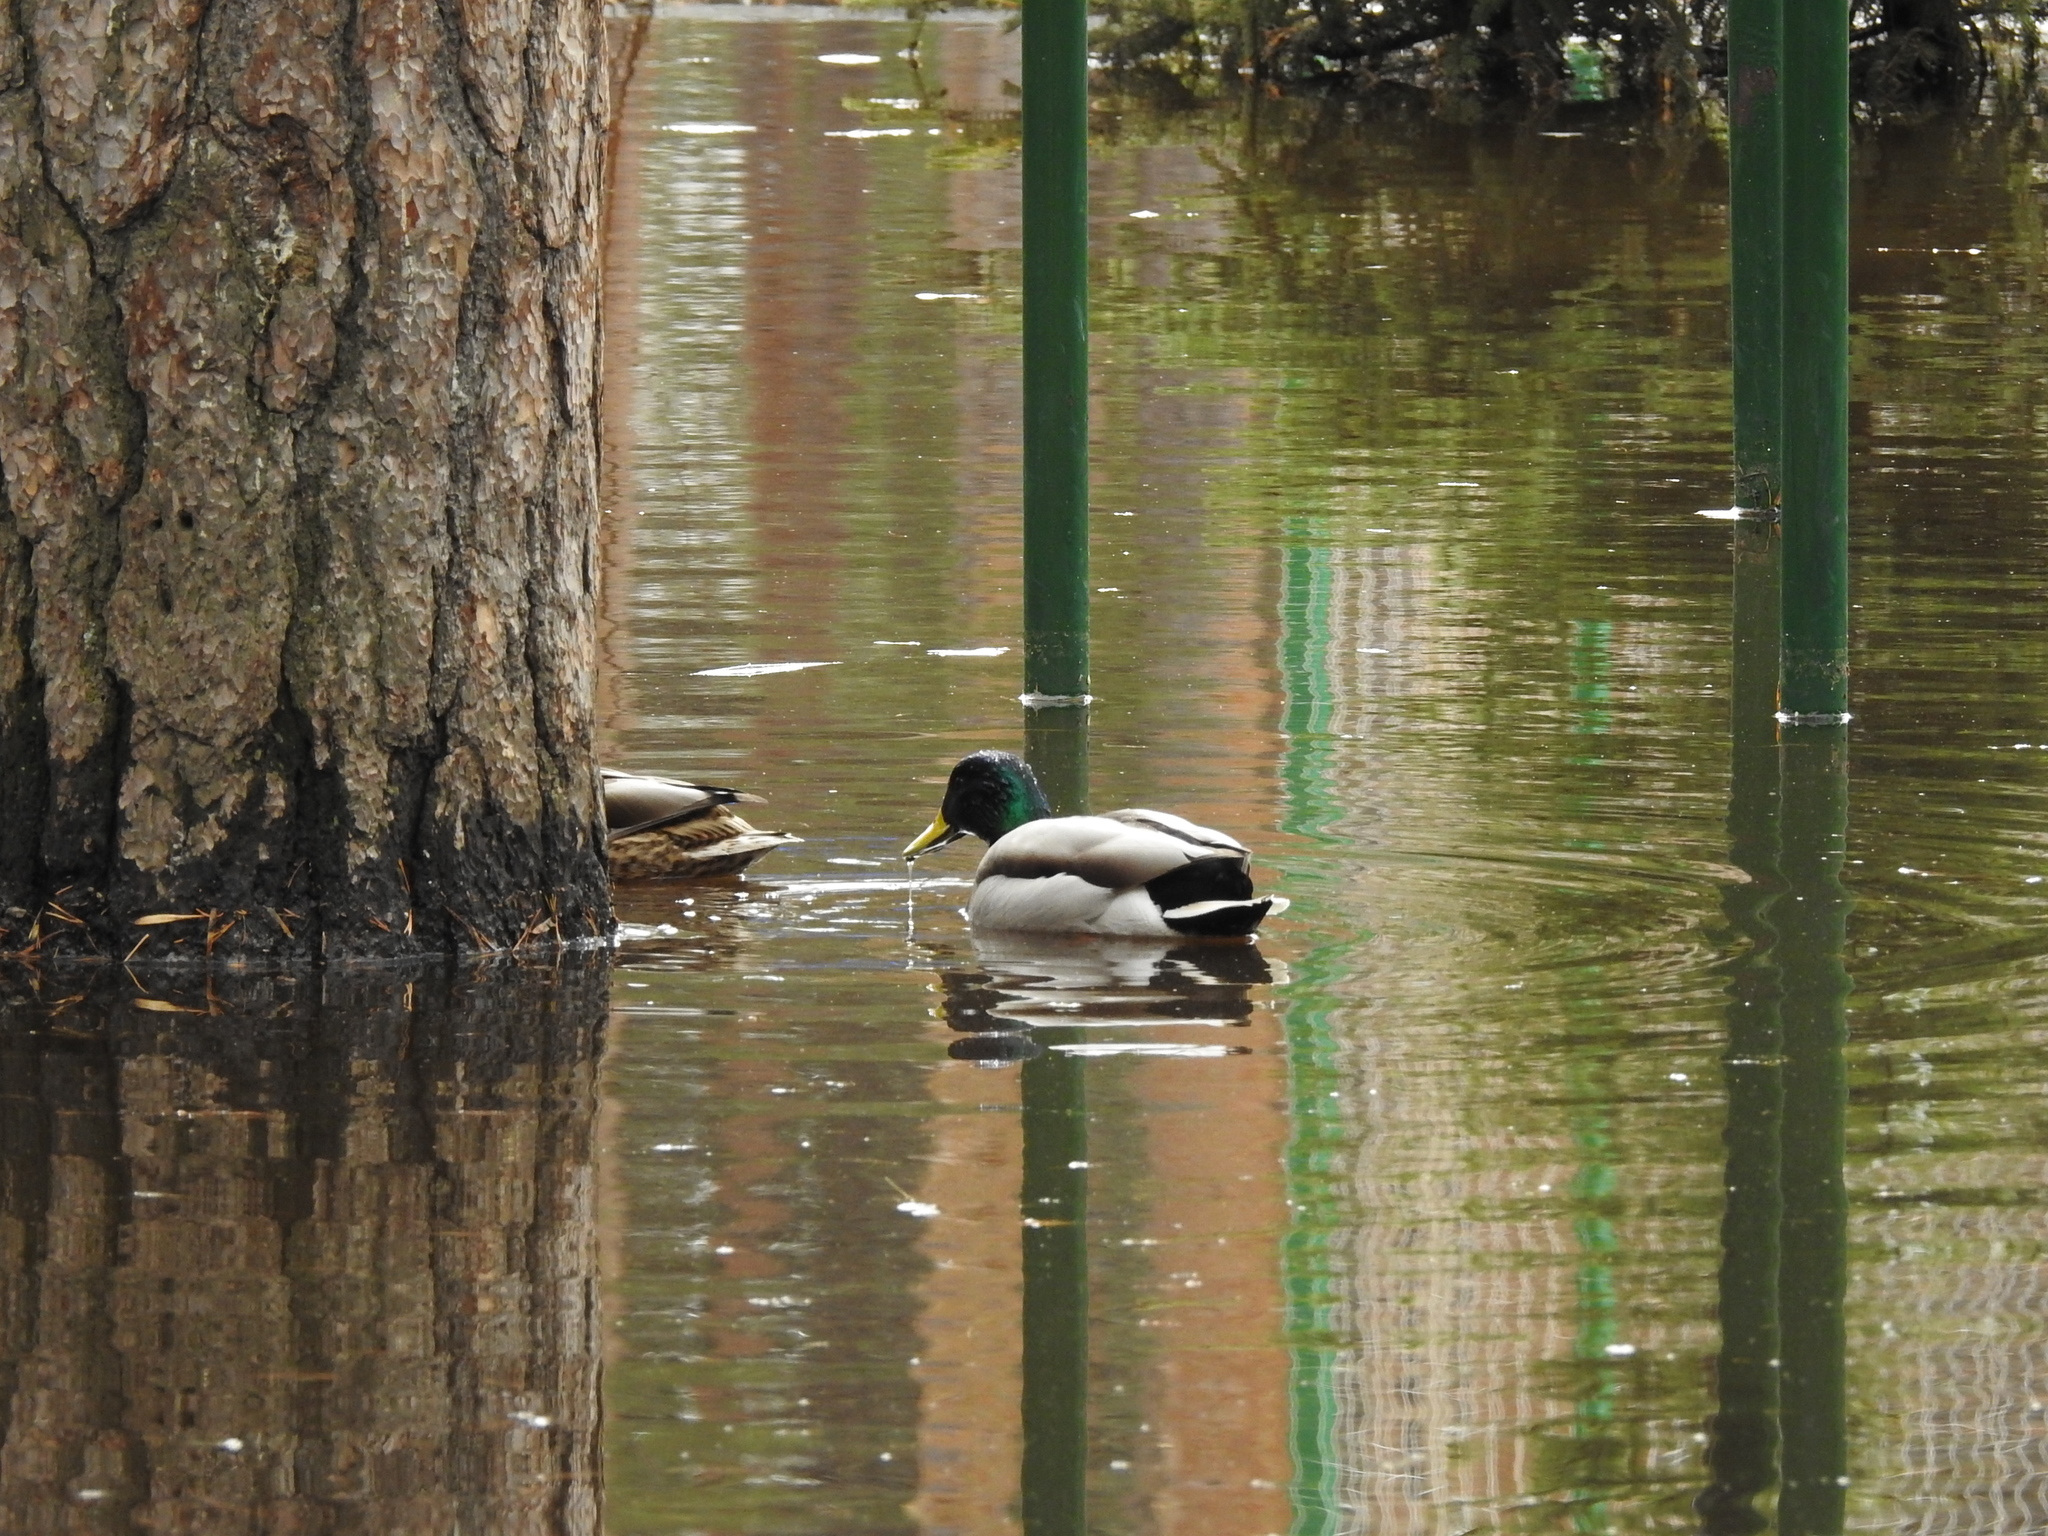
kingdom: Animalia
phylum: Chordata
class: Aves
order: Anseriformes
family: Anatidae
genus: Anas
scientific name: Anas platyrhynchos
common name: Mallard
